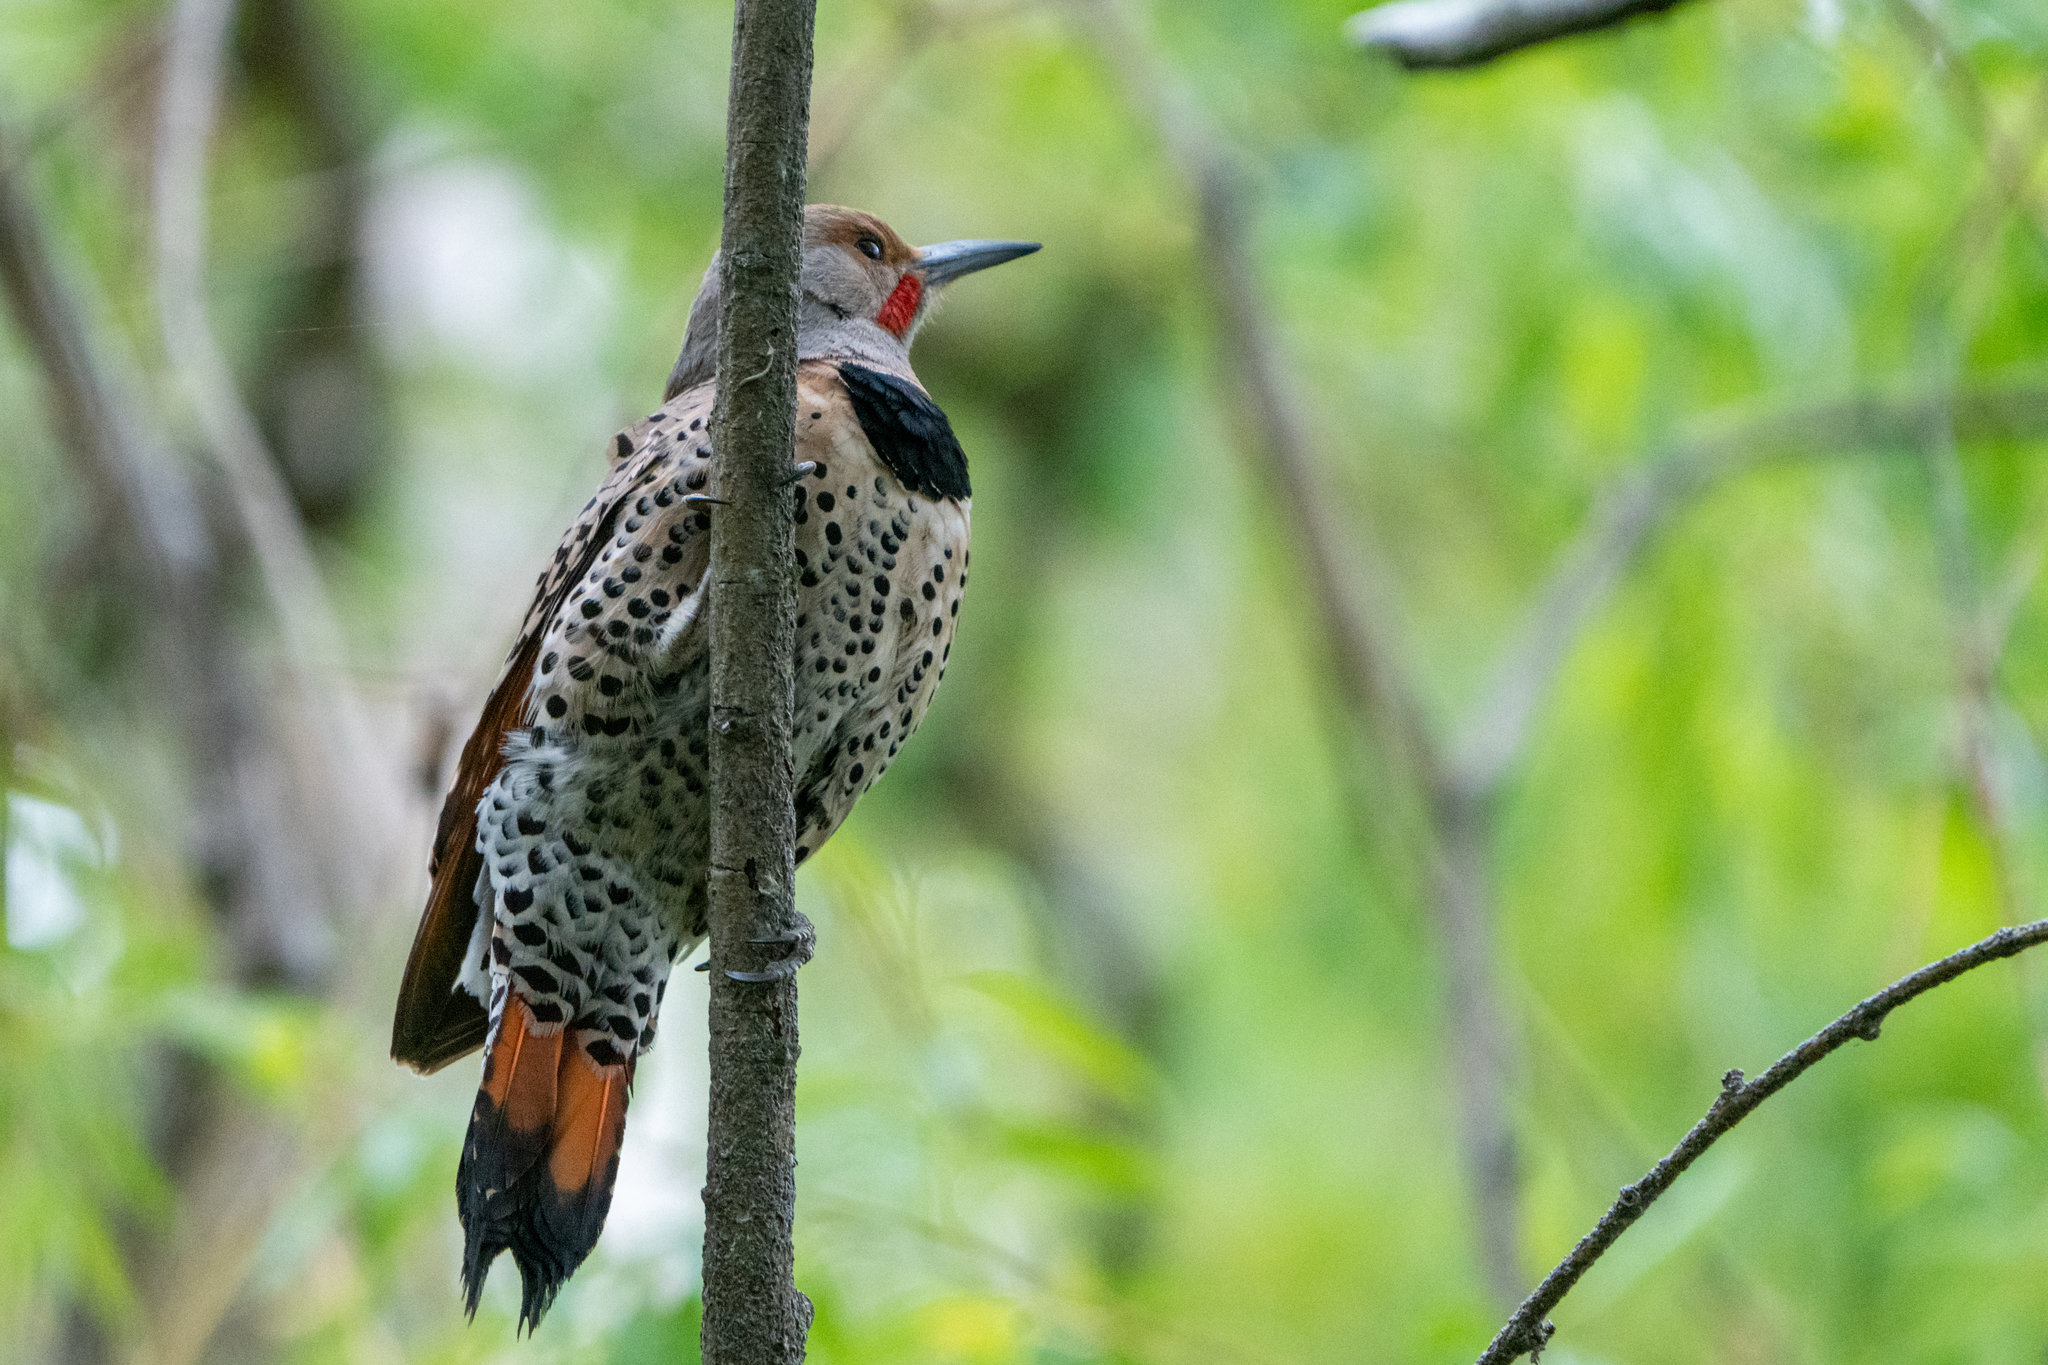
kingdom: Animalia
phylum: Chordata
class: Aves
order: Piciformes
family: Picidae
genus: Colaptes
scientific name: Colaptes auratus
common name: Northern flicker
